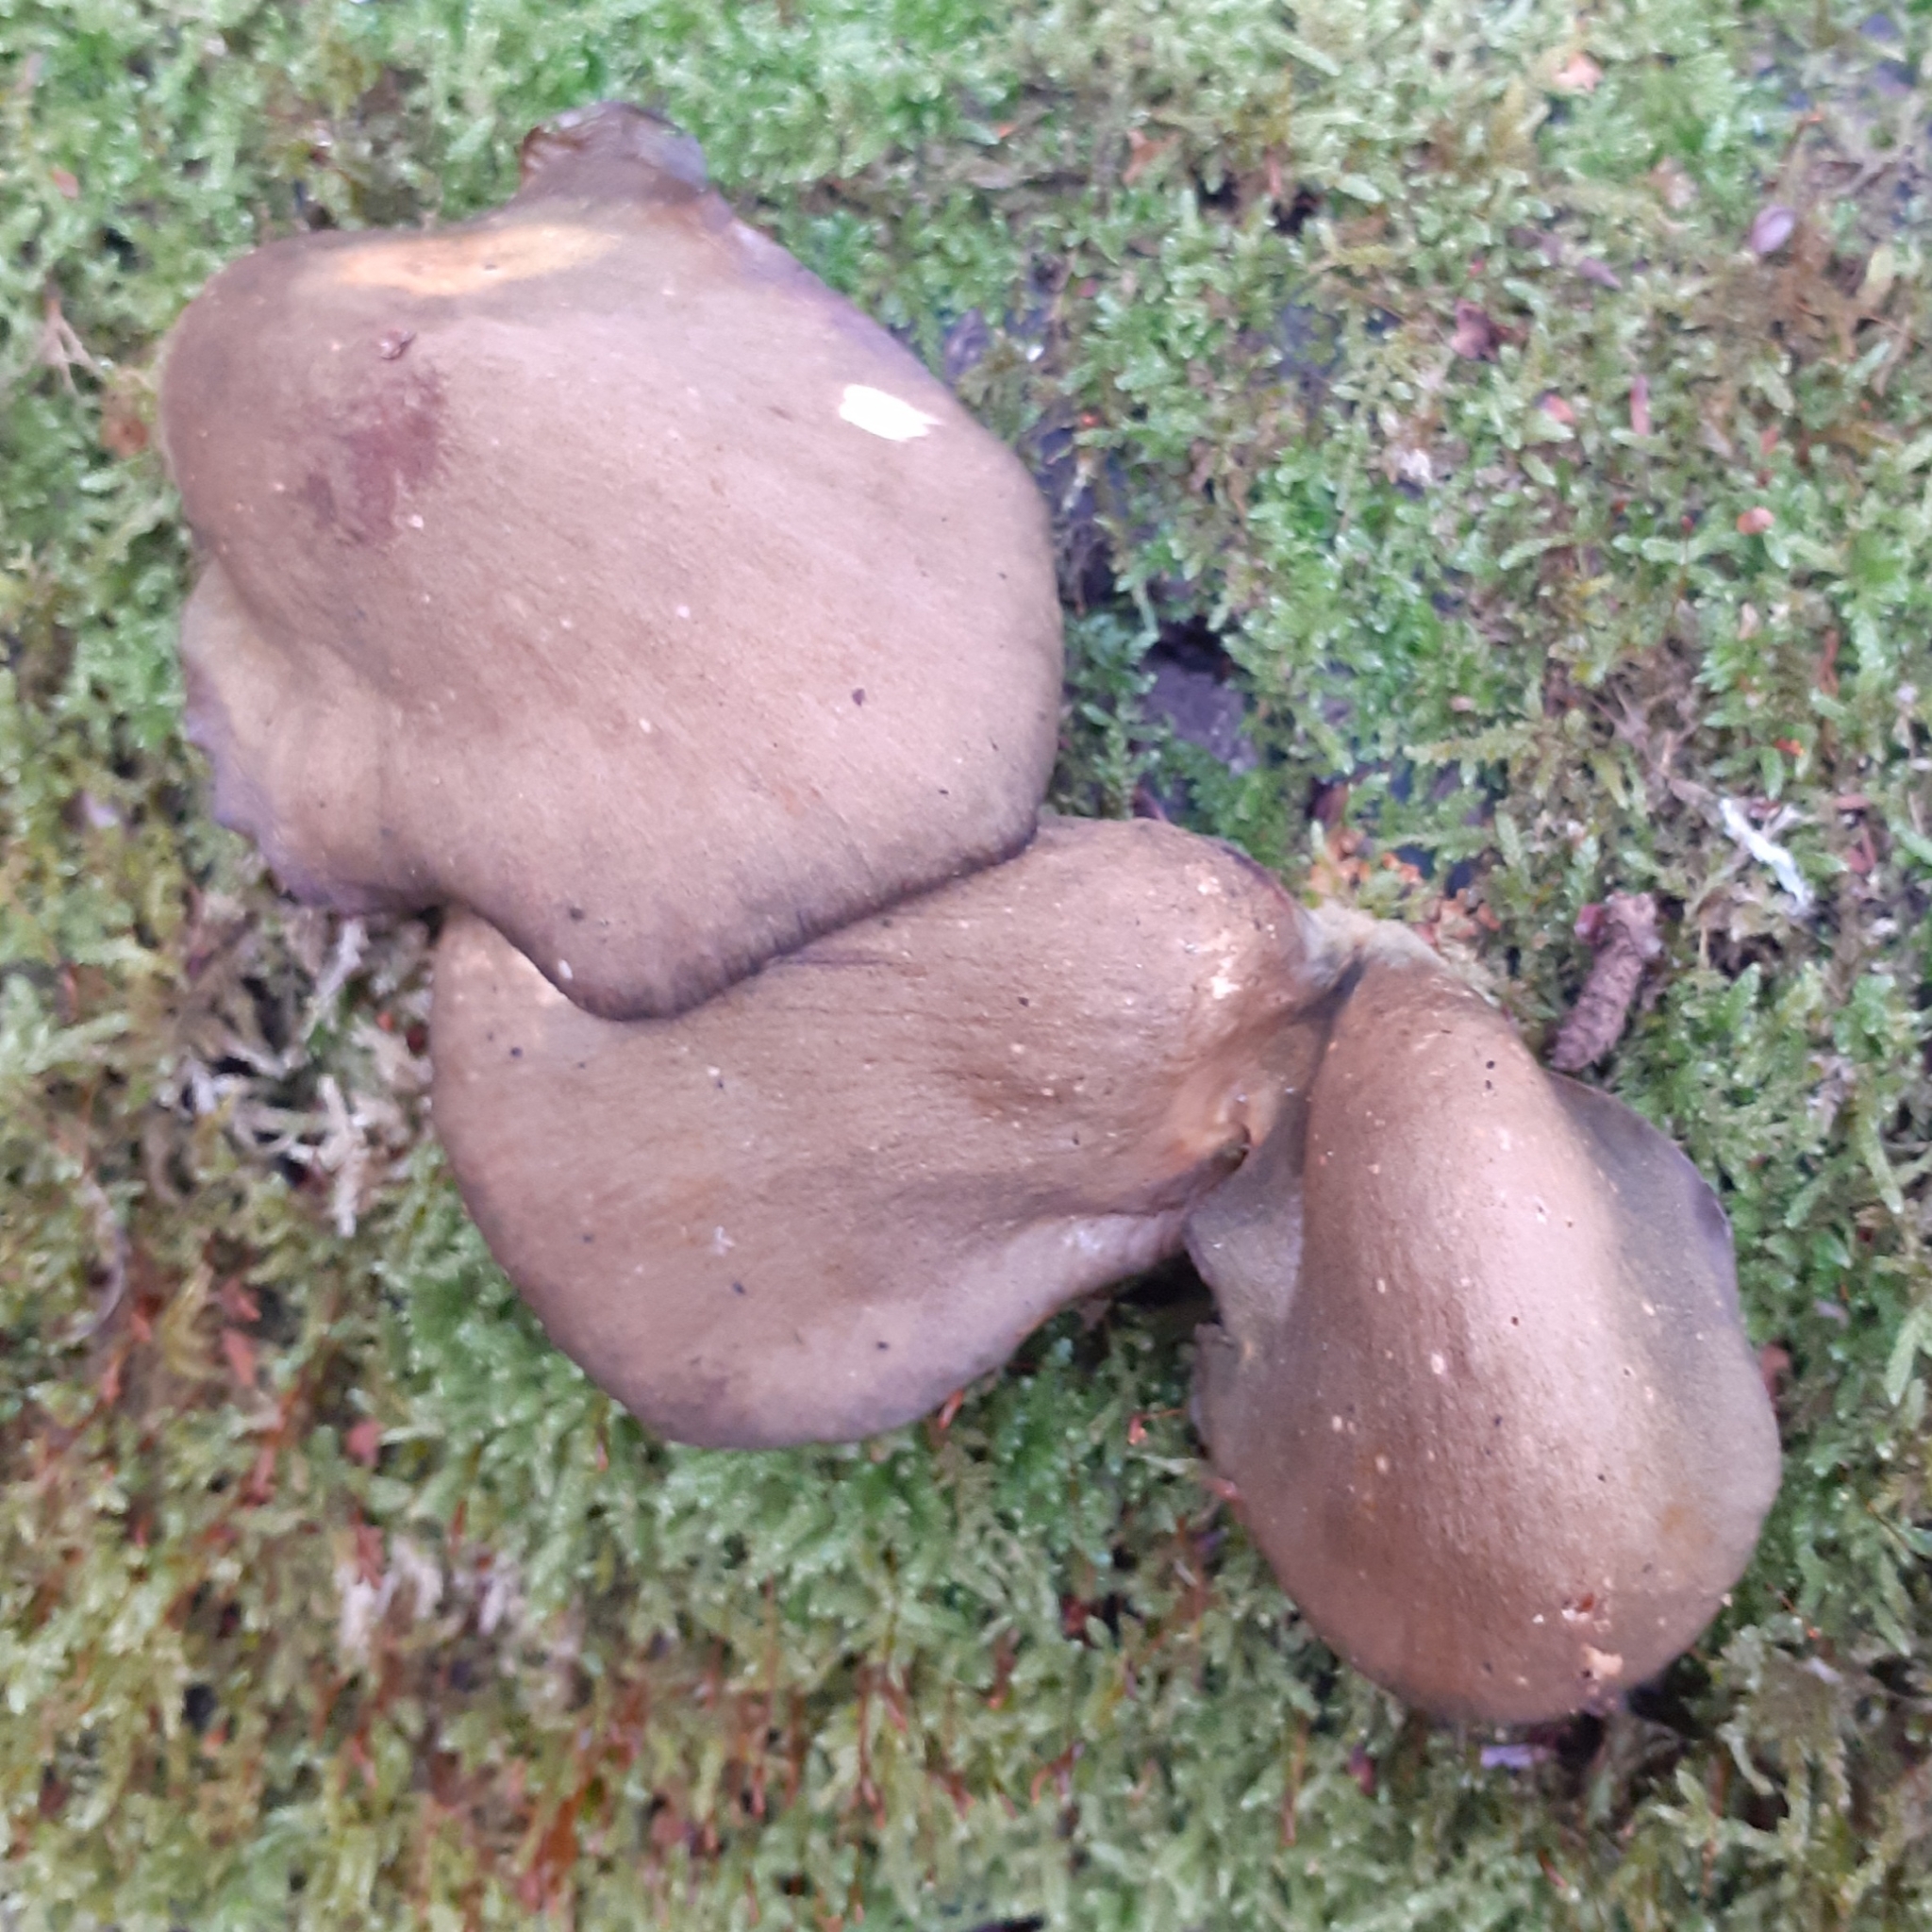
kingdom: Fungi
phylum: Basidiomycota
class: Agaricomycetes
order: Agaricales
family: Sarcomyxaceae
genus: Sarcomyxa
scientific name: Sarcomyxa serotina
